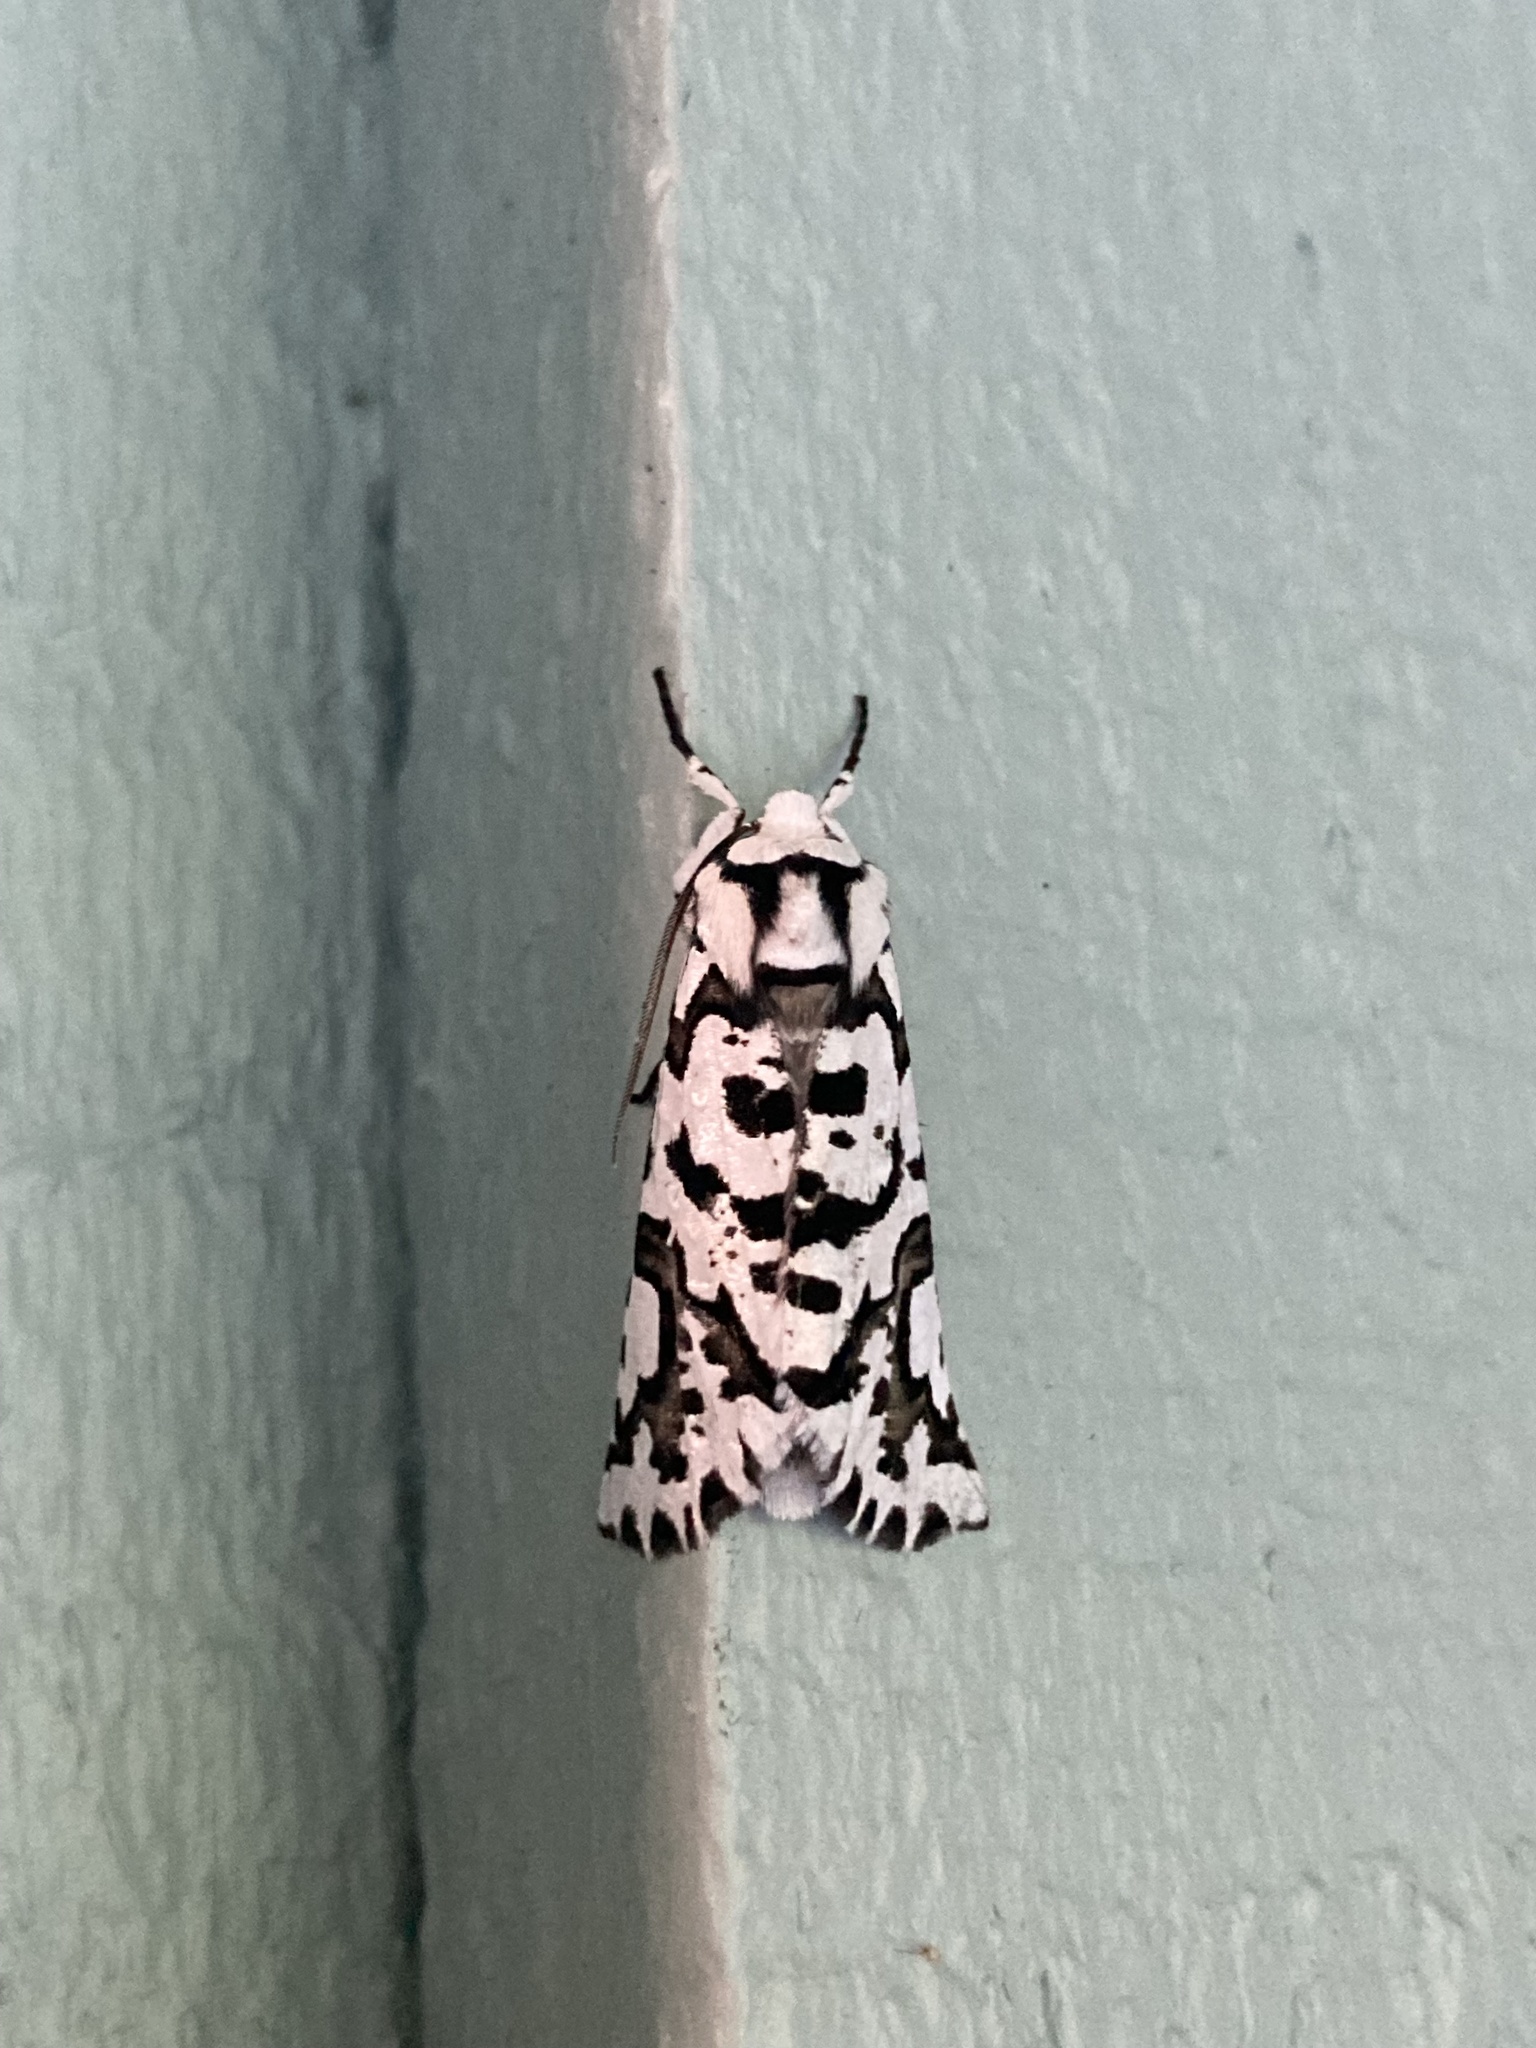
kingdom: Animalia
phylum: Arthropoda
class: Insecta
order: Lepidoptera
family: Geometridae
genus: Declana
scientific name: Declana
